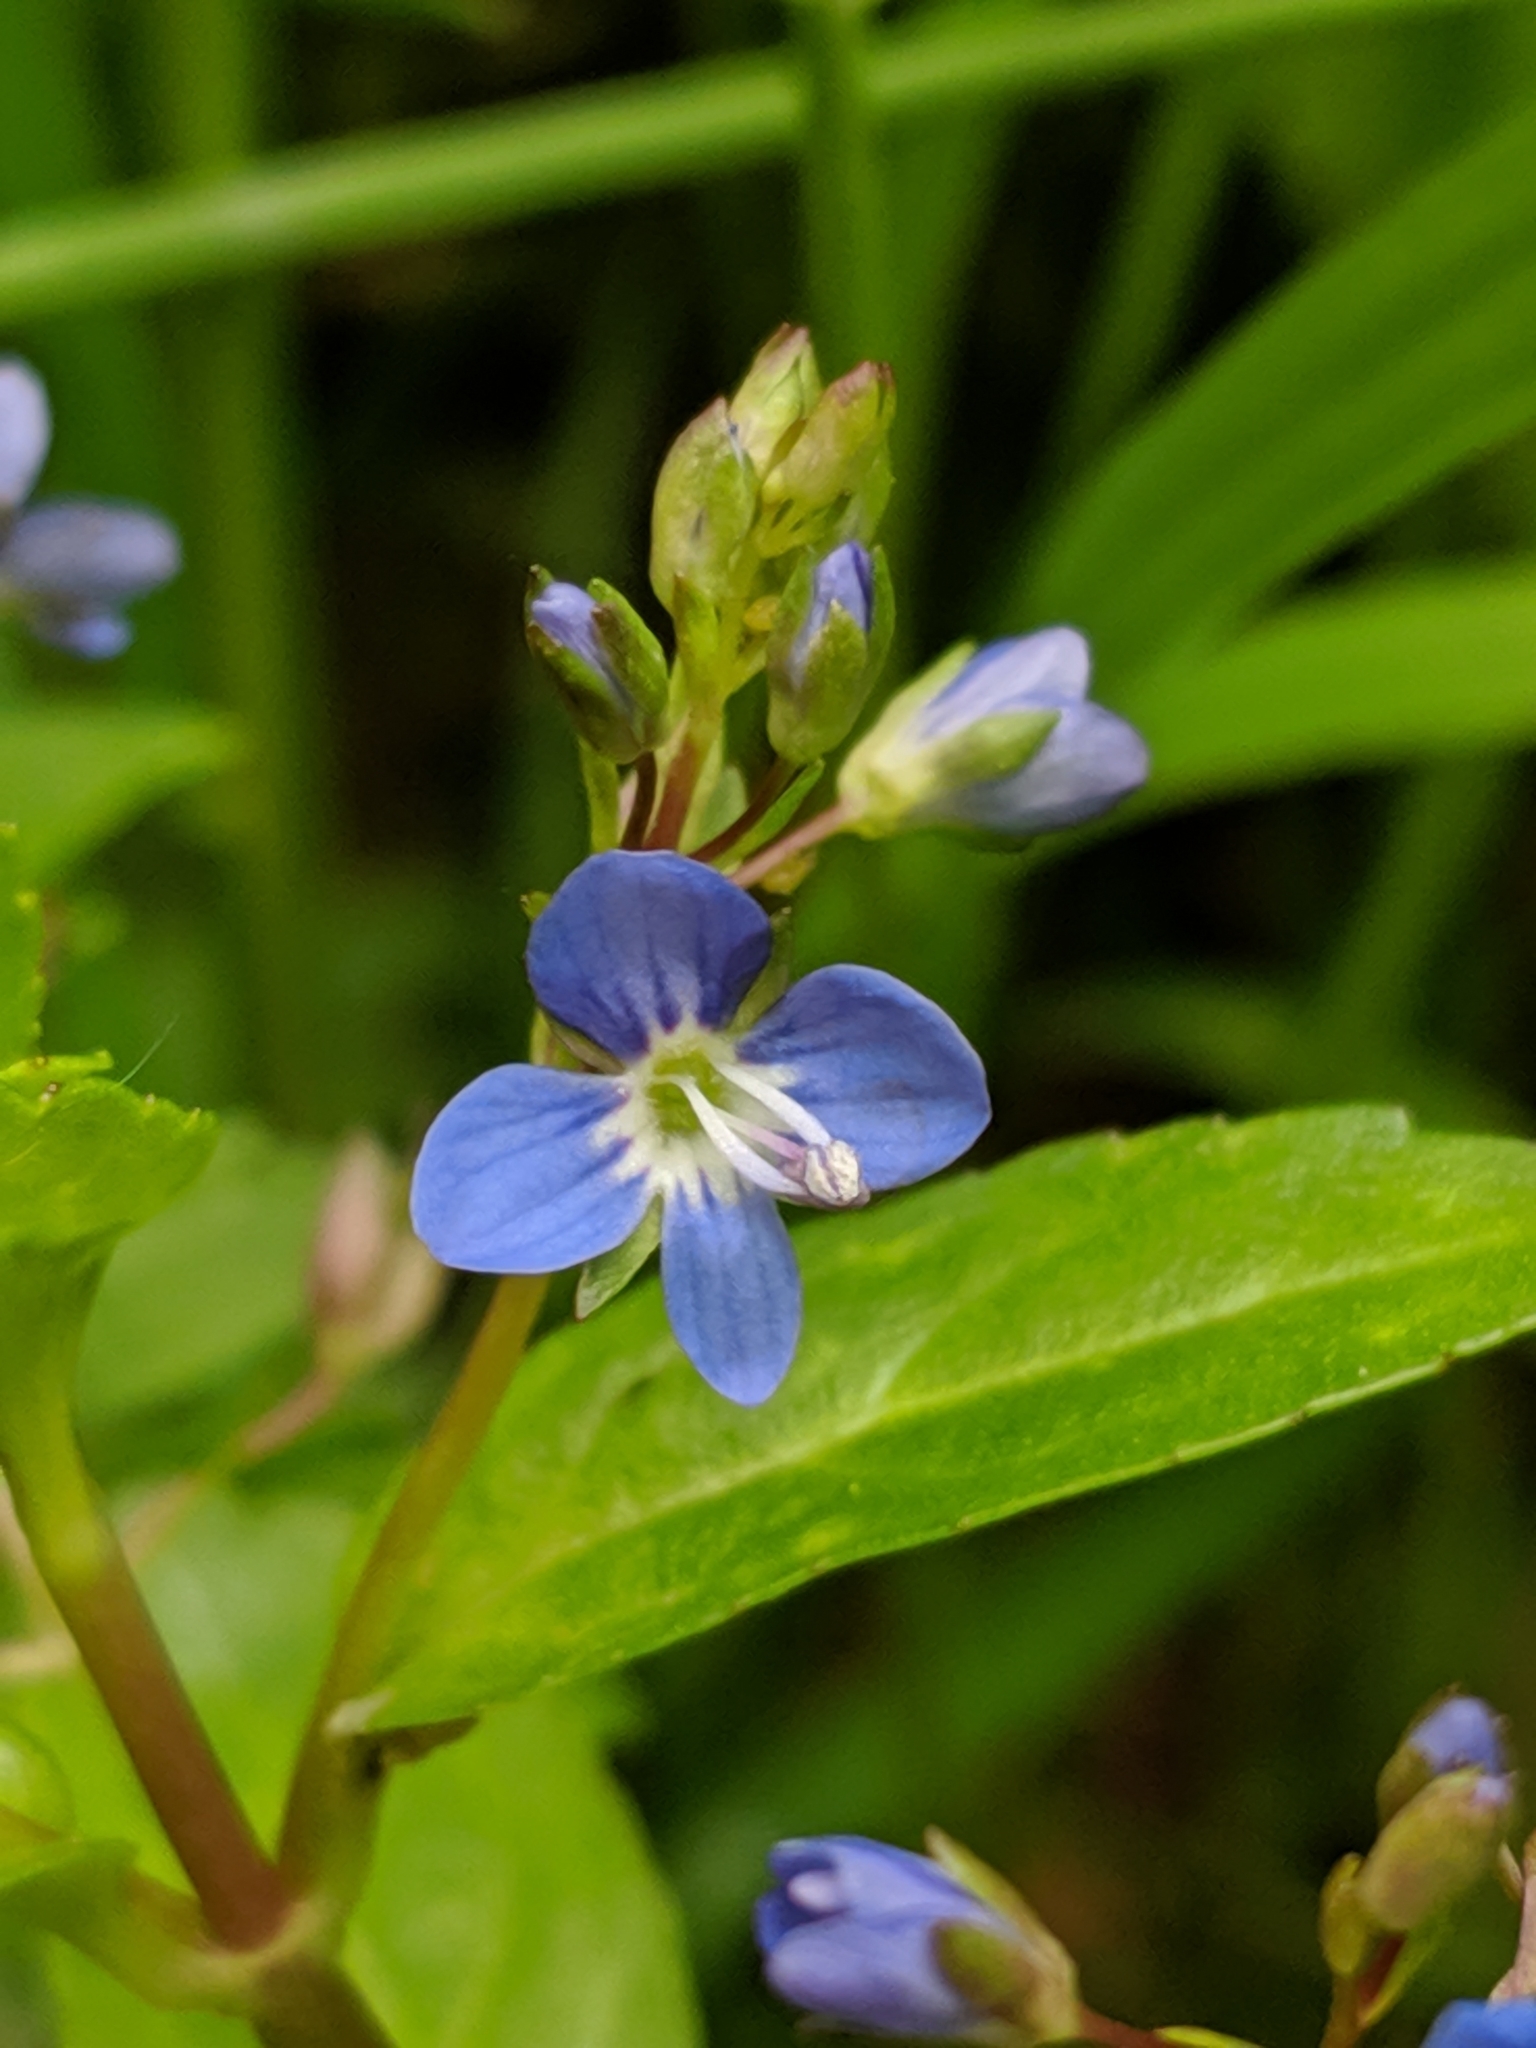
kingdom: Plantae
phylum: Tracheophyta
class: Magnoliopsida
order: Lamiales
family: Plantaginaceae
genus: Veronica
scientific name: Veronica beccabunga
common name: Brooklime
